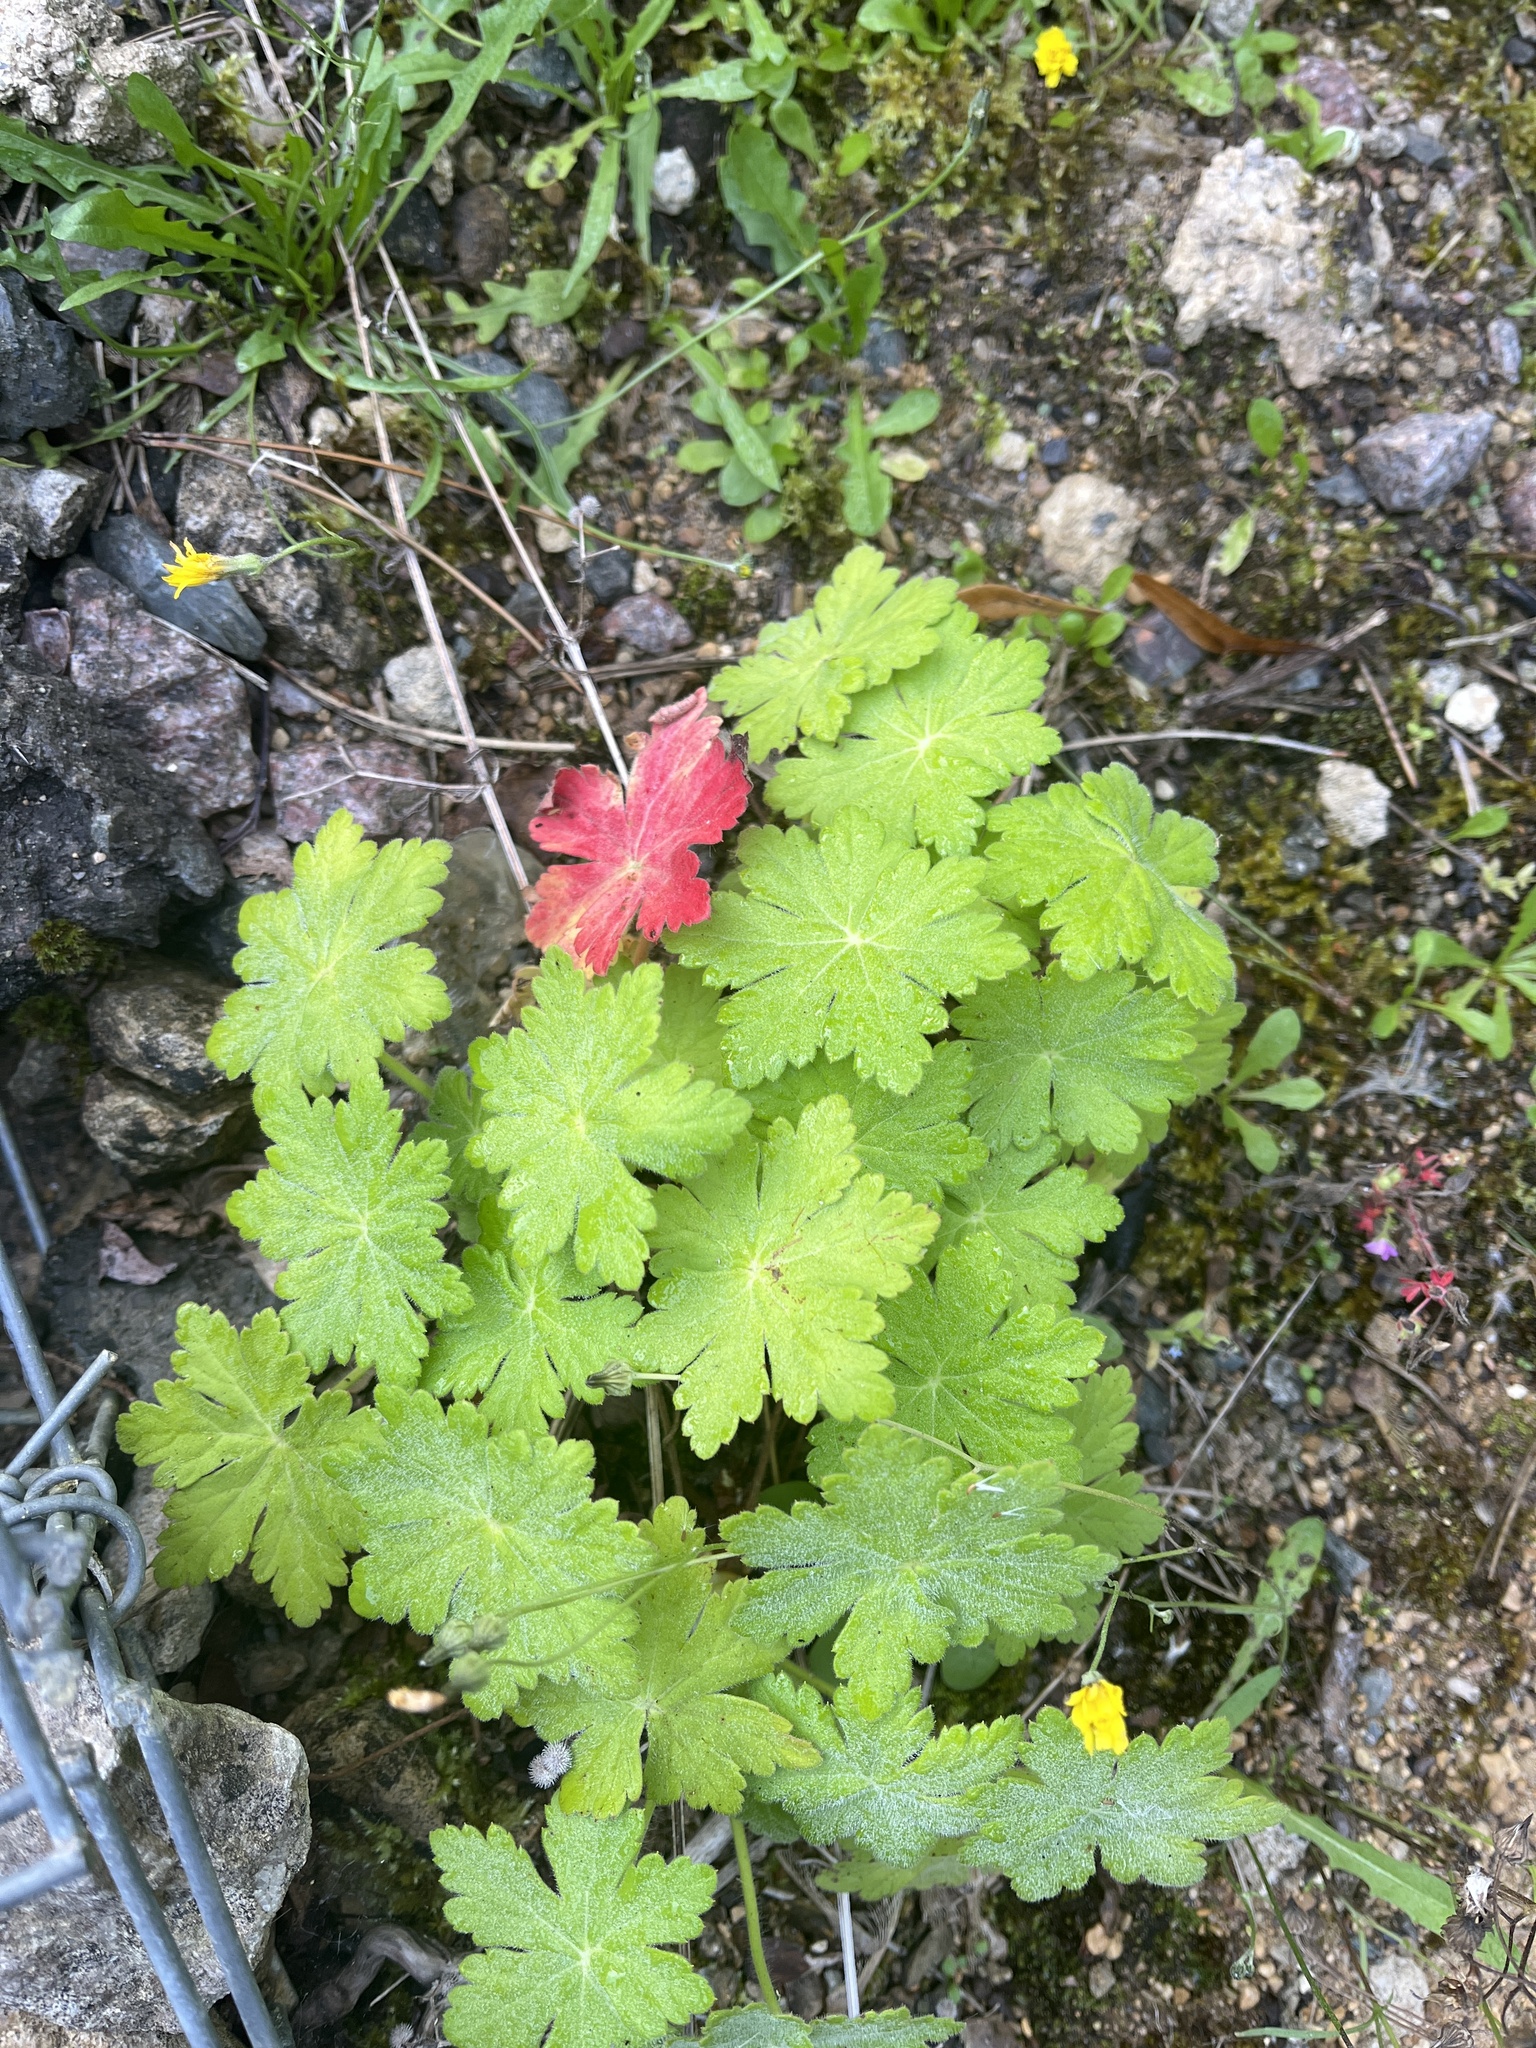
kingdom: Plantae
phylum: Tracheophyta
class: Magnoliopsida
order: Geraniales
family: Geraniaceae
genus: Geranium
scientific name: Geranium macrorrhizum
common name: Rock crane's-bill
